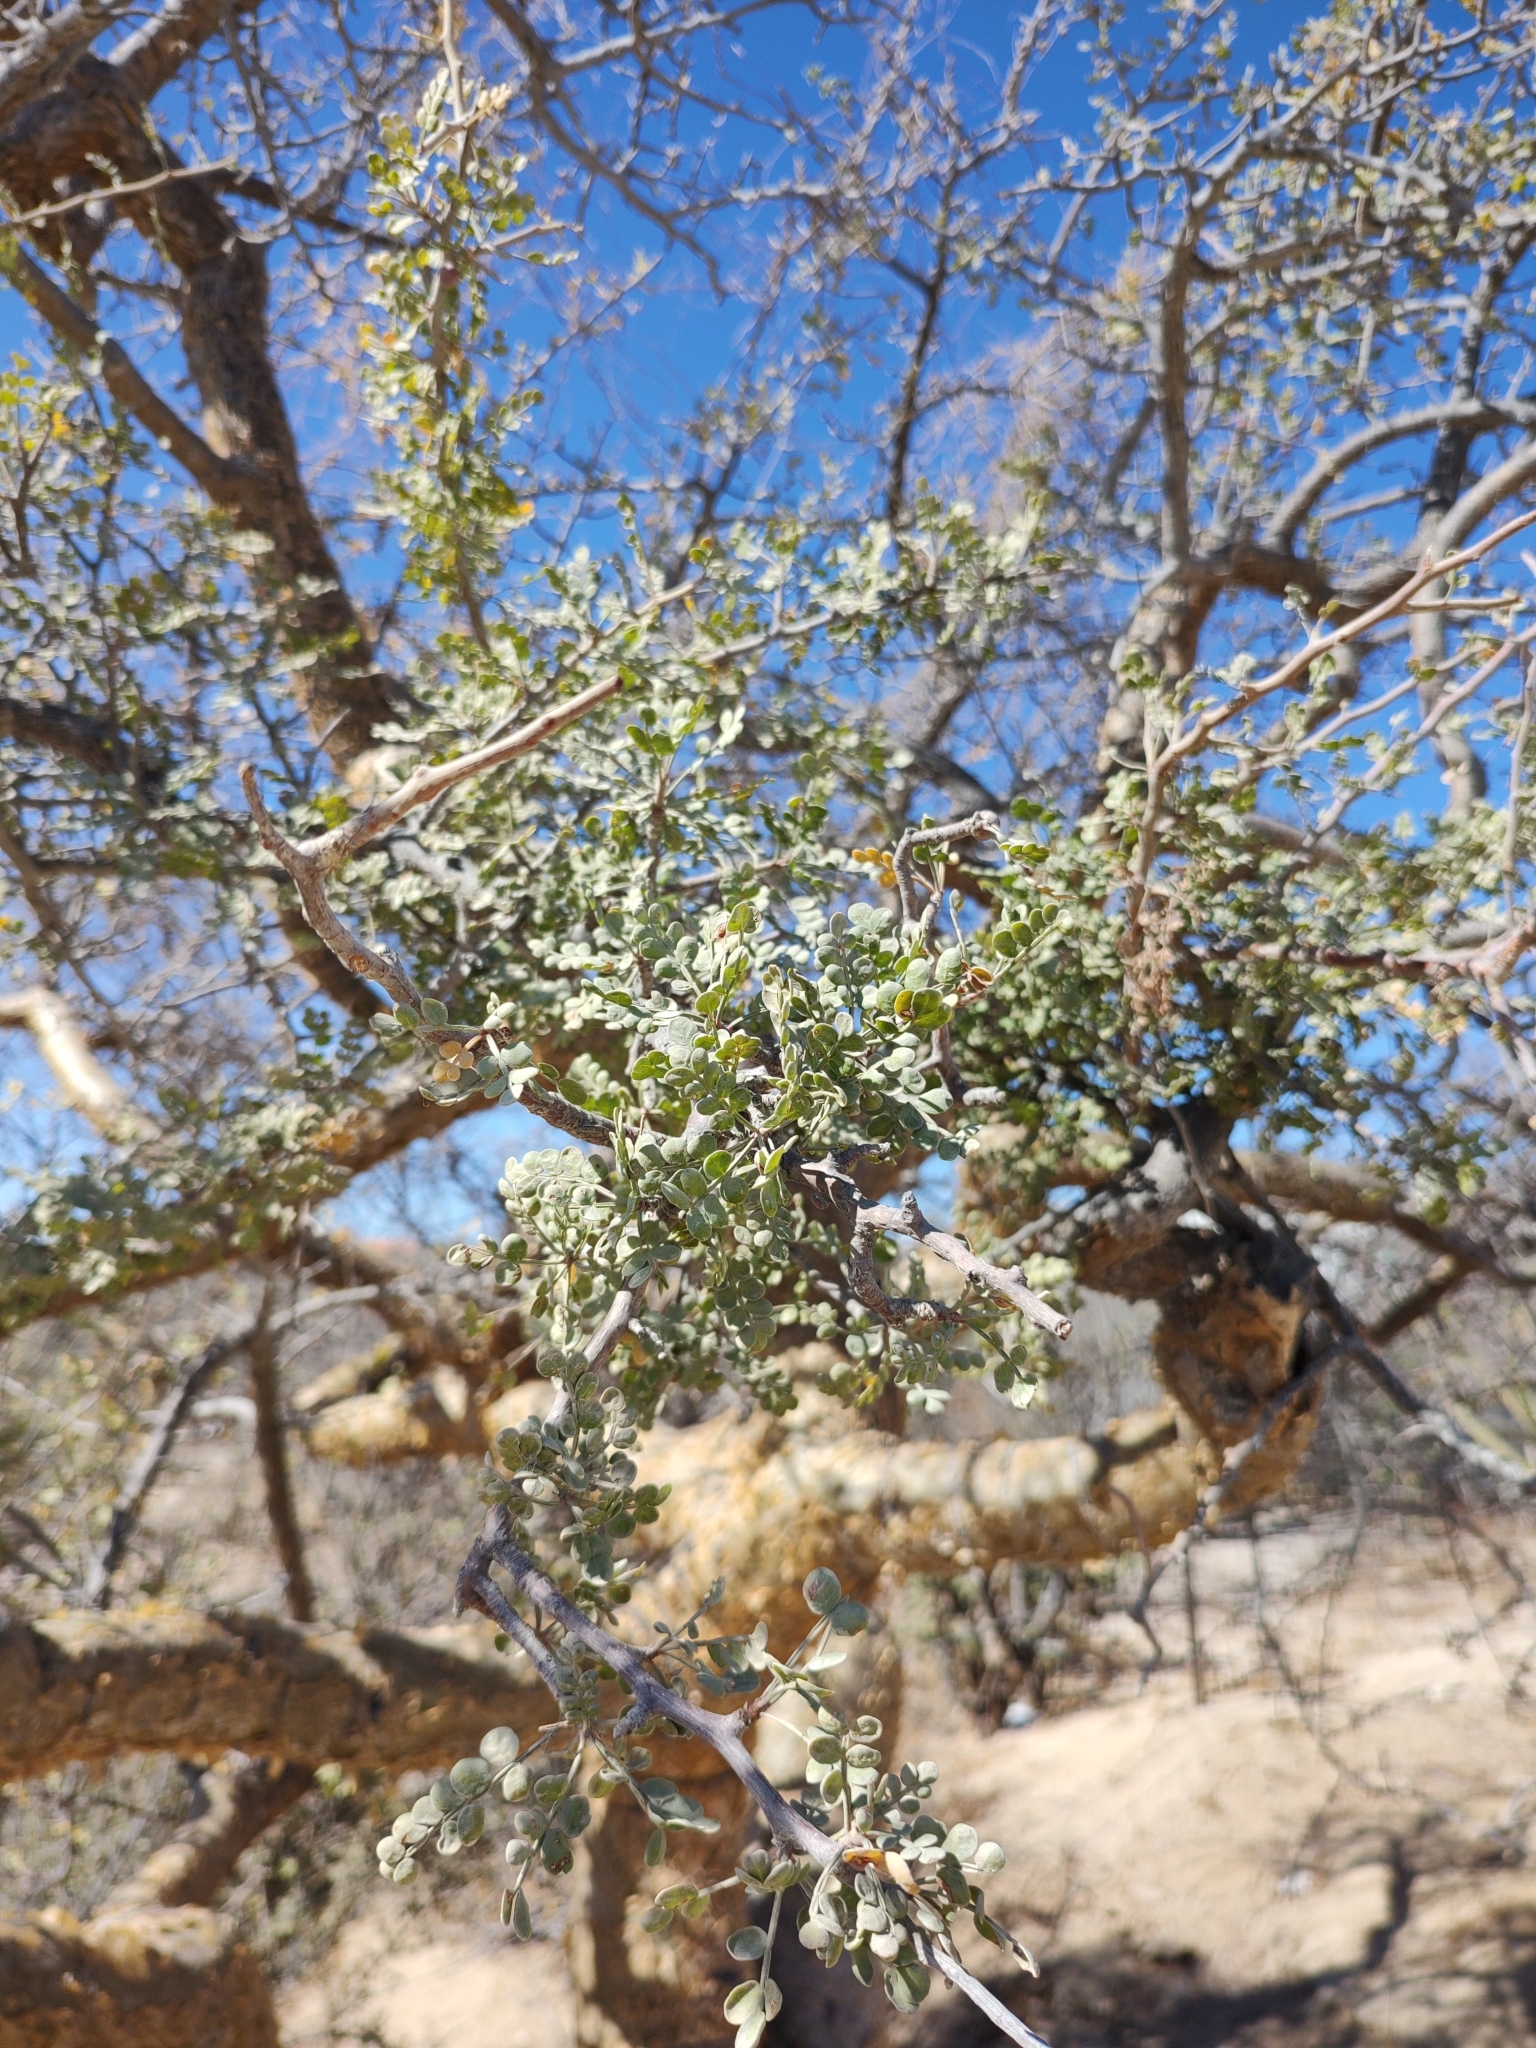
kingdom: Plantae
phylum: Tracheophyta
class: Magnoliopsida
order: Sapindales
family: Burseraceae
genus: Bursera
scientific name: Bursera exequielii
